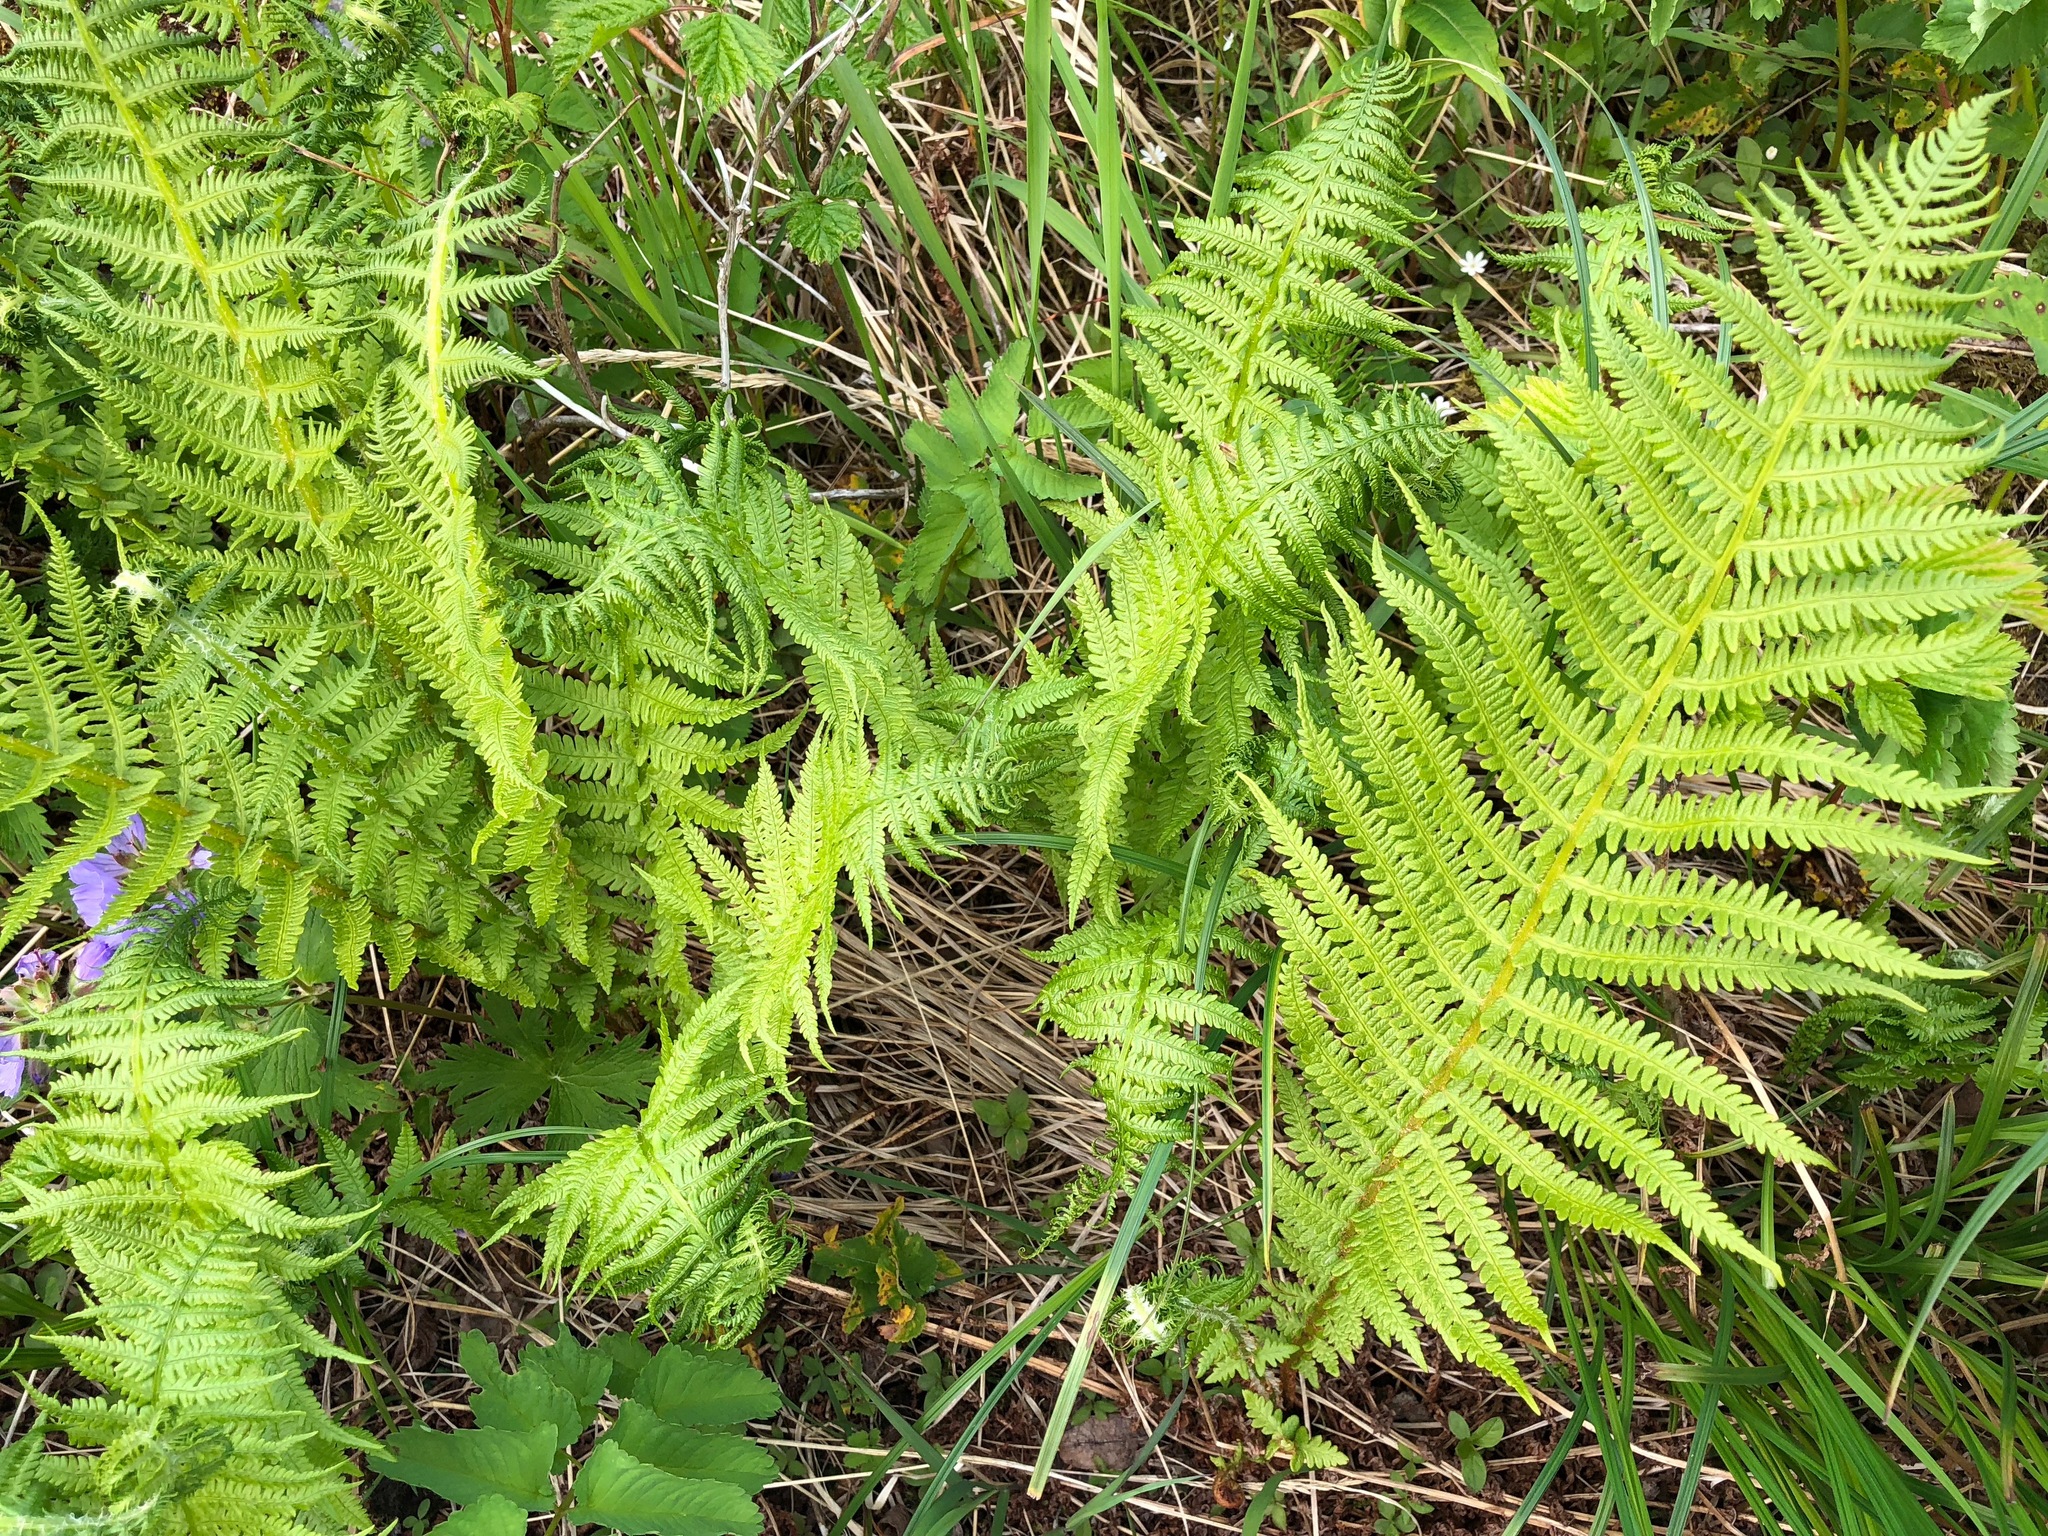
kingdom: Plantae
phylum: Tracheophyta
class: Polypodiopsida
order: Polypodiales
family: Thelypteridaceae
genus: Oreopteris
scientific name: Oreopteris quelpartensis
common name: Mountain fern
